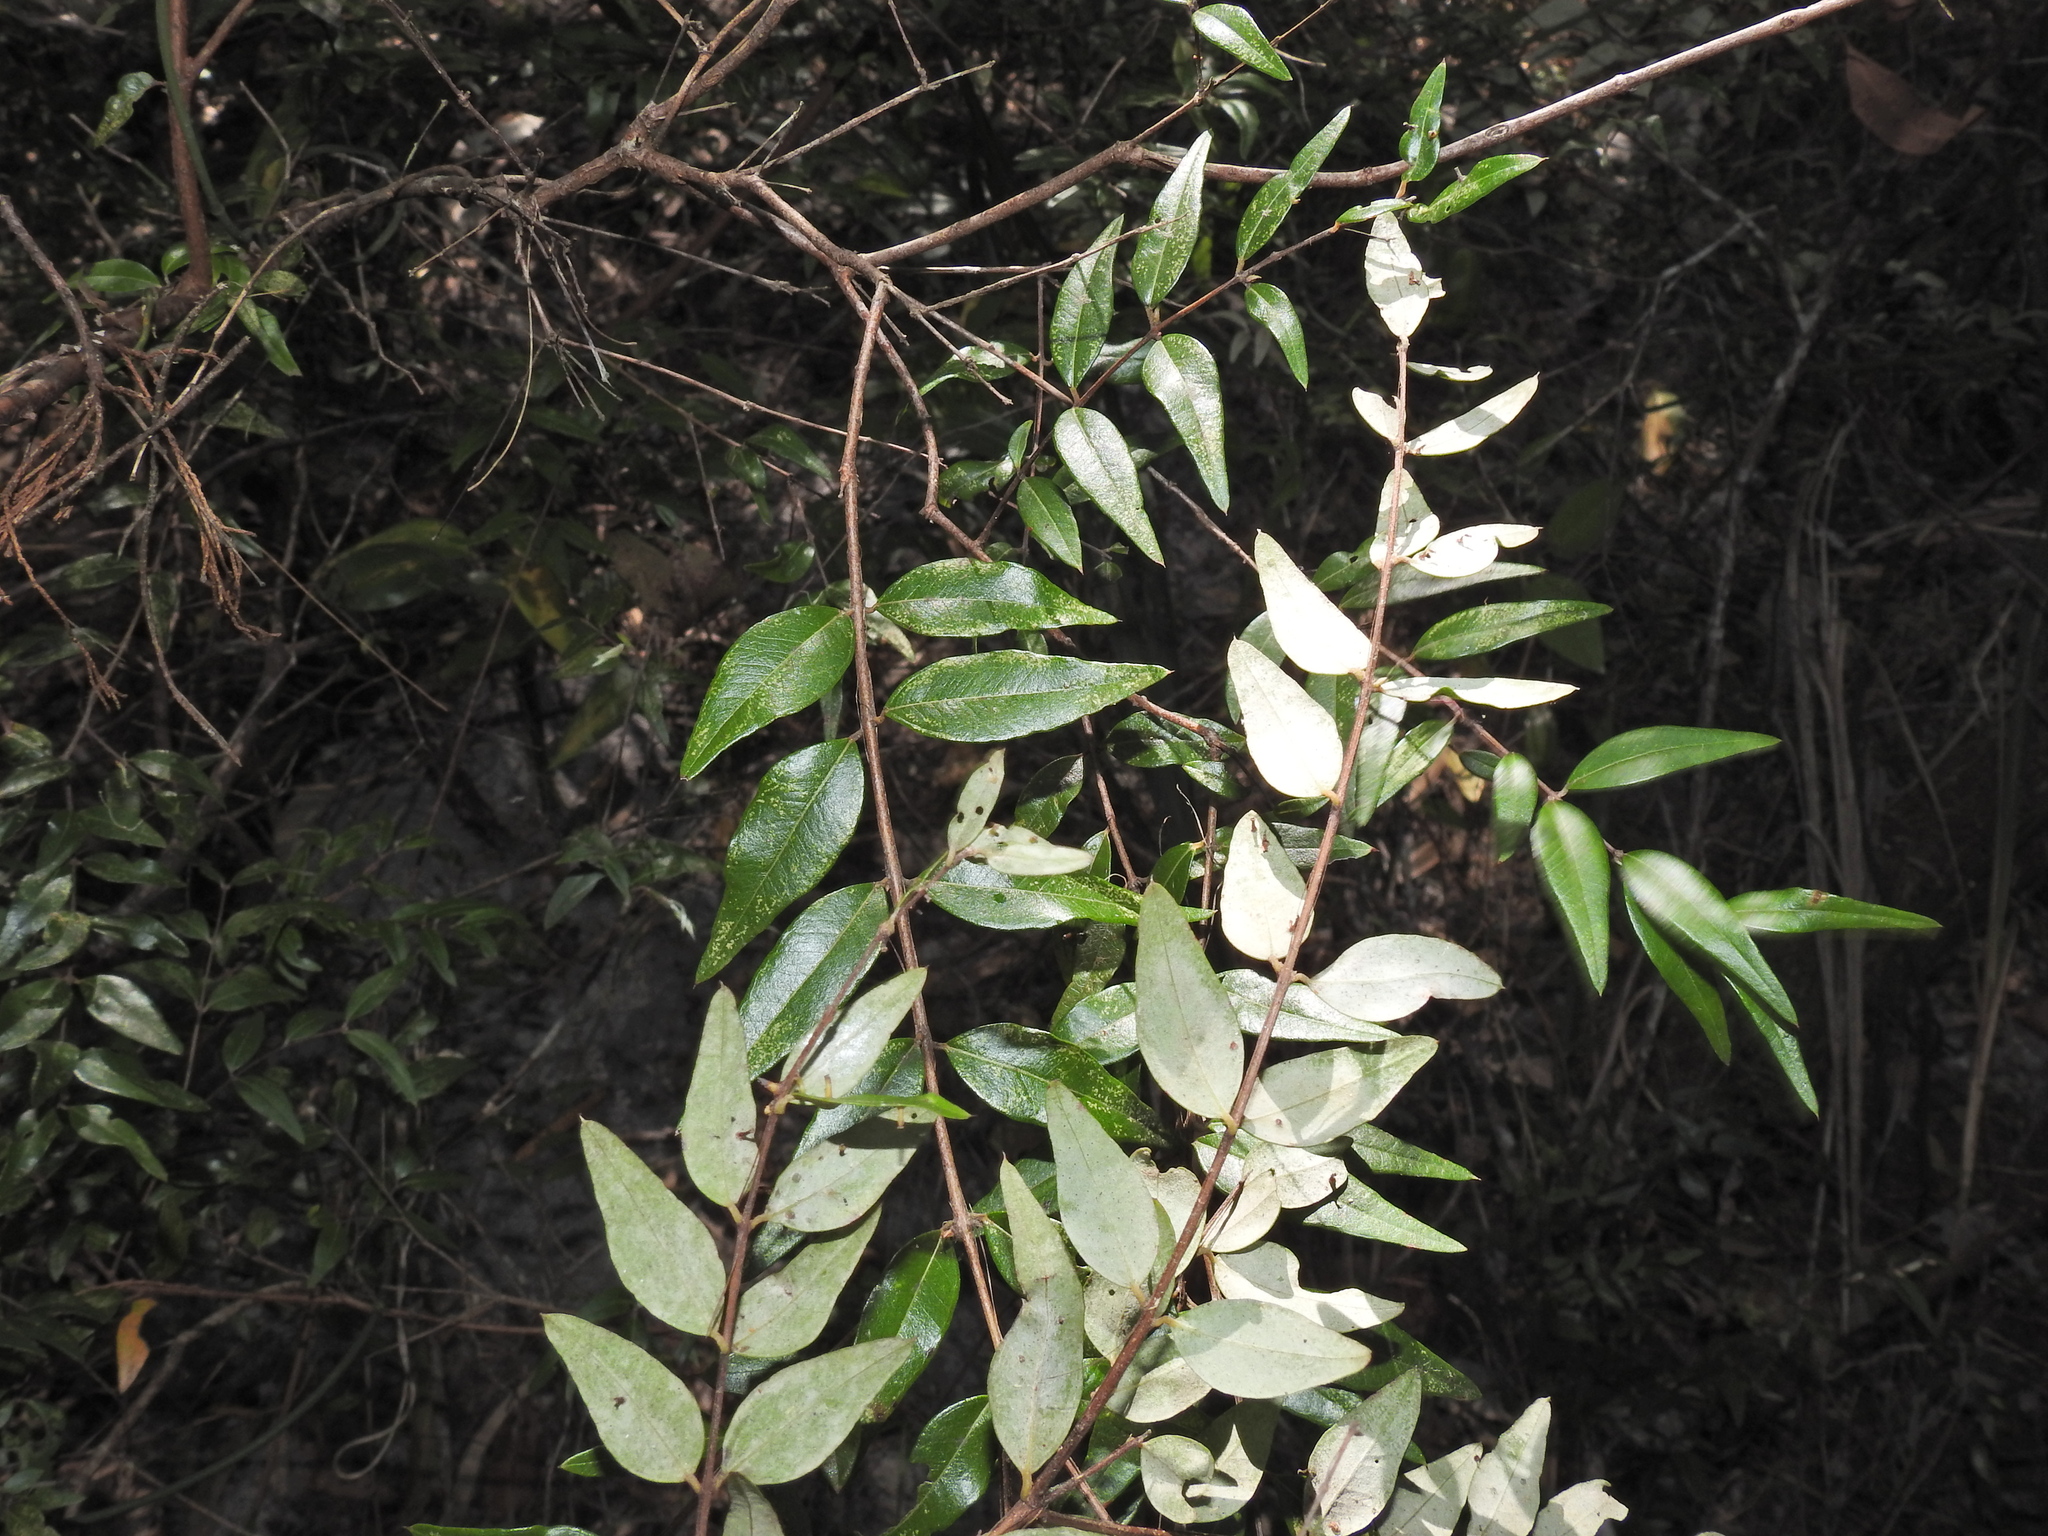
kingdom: Plantae
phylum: Tracheophyta
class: Magnoliopsida
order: Myrtales
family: Myrtaceae
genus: Austromyrtus
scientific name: Austromyrtus dulcis
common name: Migden-berry
